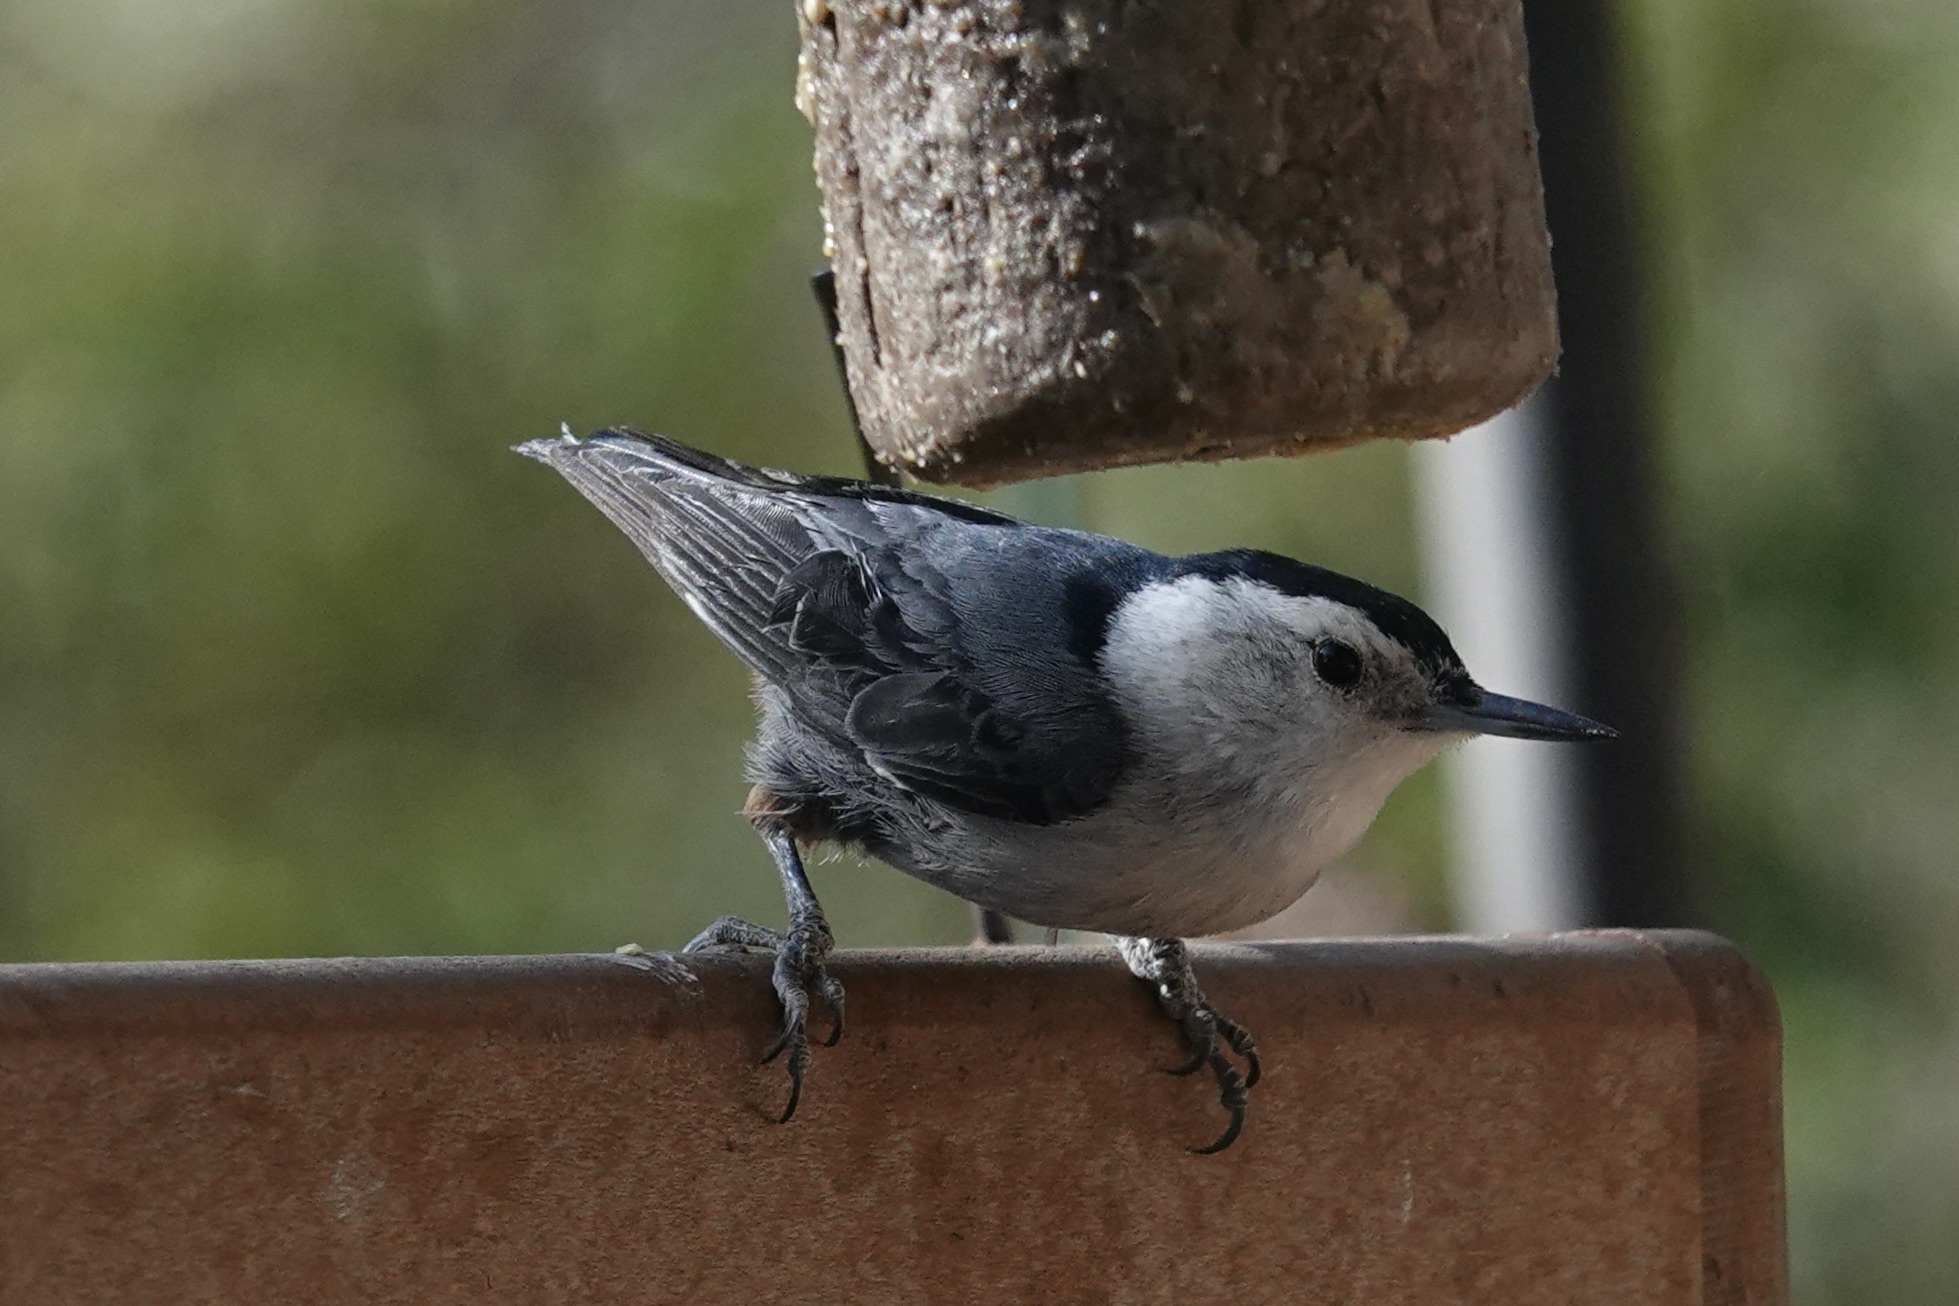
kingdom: Animalia
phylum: Chordata
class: Aves
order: Passeriformes
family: Sittidae
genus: Sitta
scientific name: Sitta carolinensis
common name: White-breasted nuthatch
